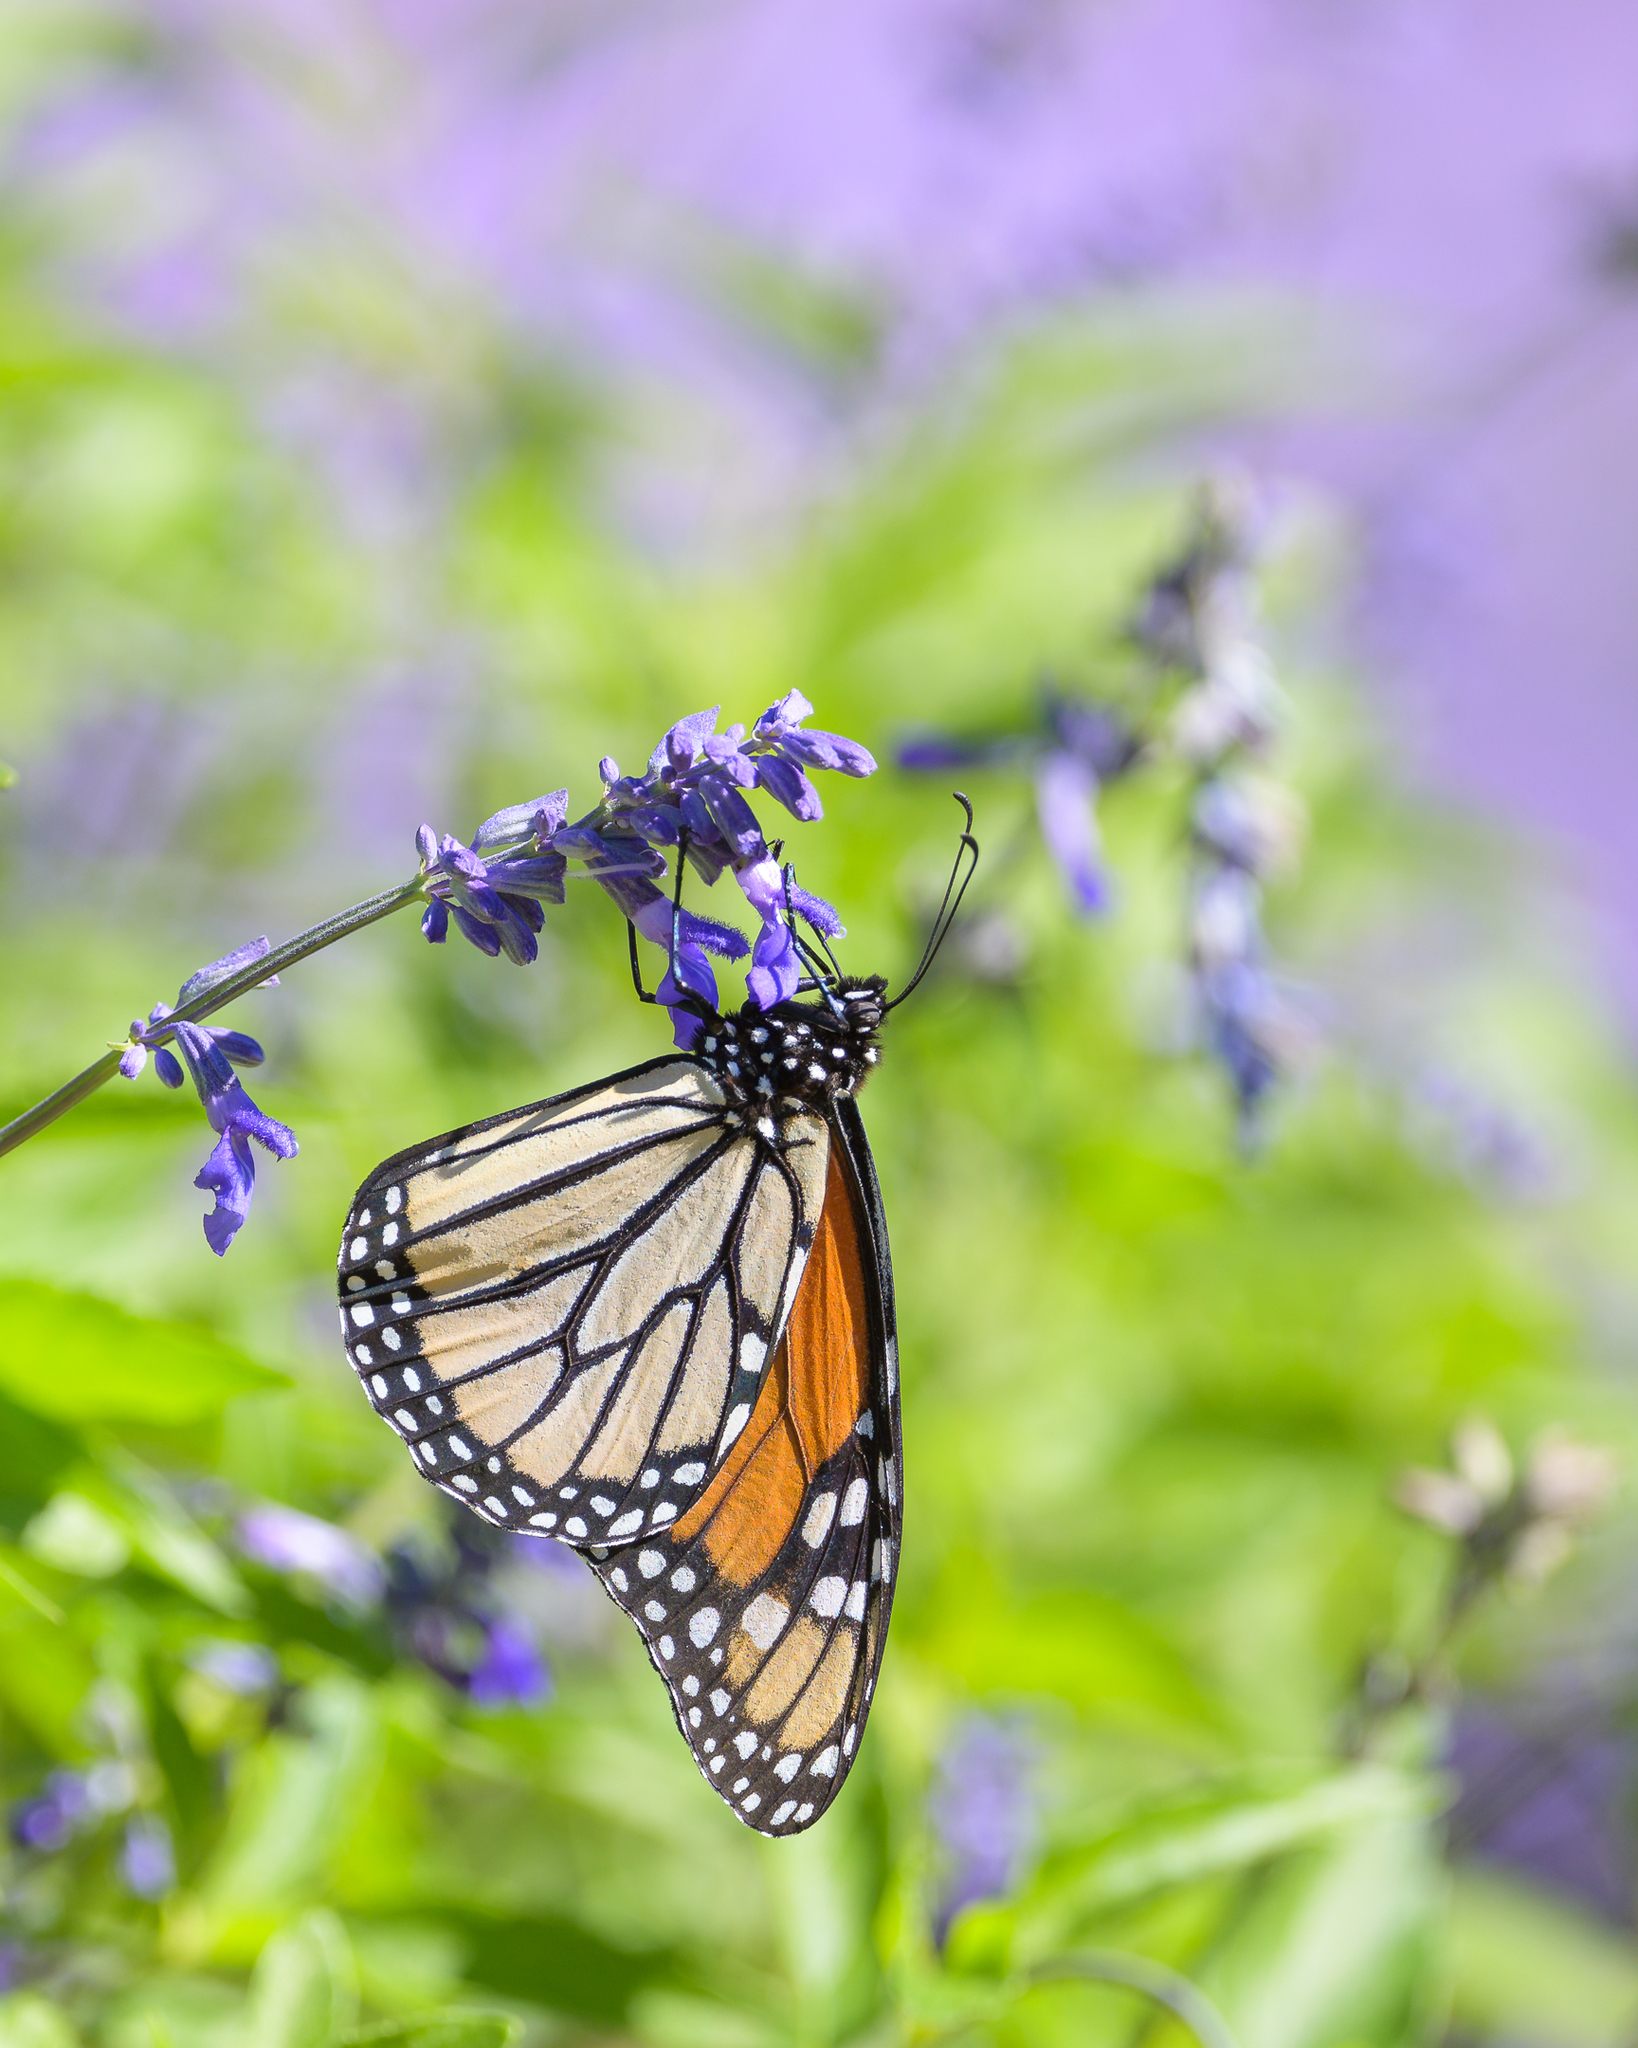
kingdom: Animalia
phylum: Arthropoda
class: Insecta
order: Lepidoptera
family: Nymphalidae
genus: Danaus
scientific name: Danaus plexippus
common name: Monarch
